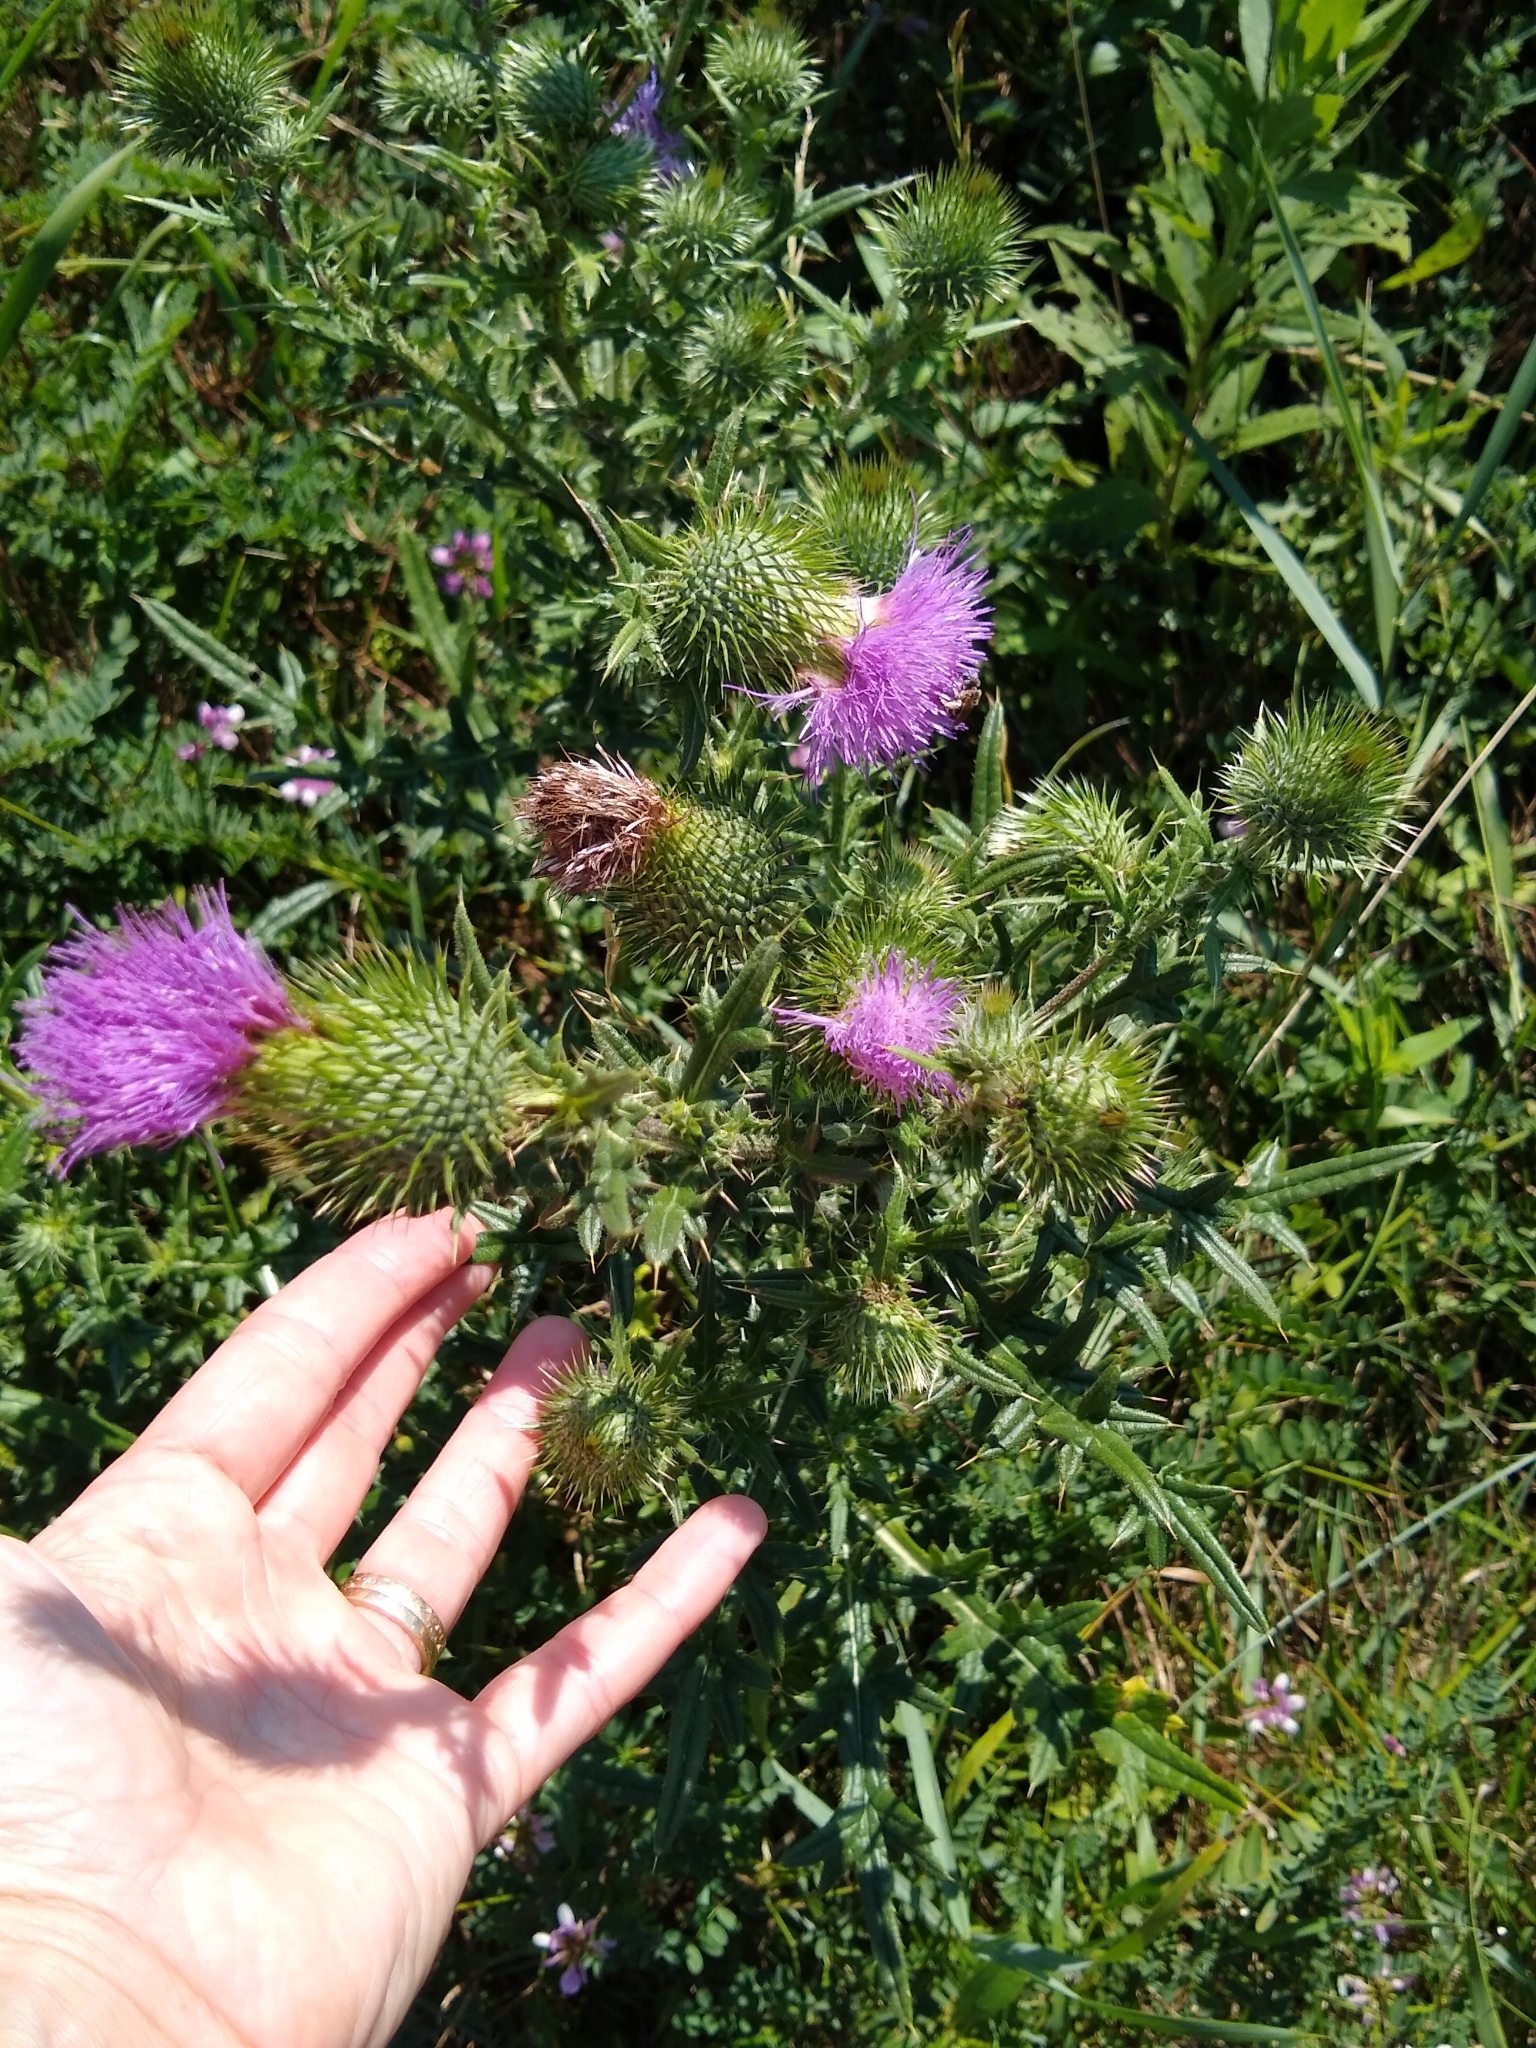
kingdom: Plantae
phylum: Tracheophyta
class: Magnoliopsida
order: Asterales
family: Asteraceae
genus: Cirsium
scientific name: Cirsium vulgare
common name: Bull thistle
